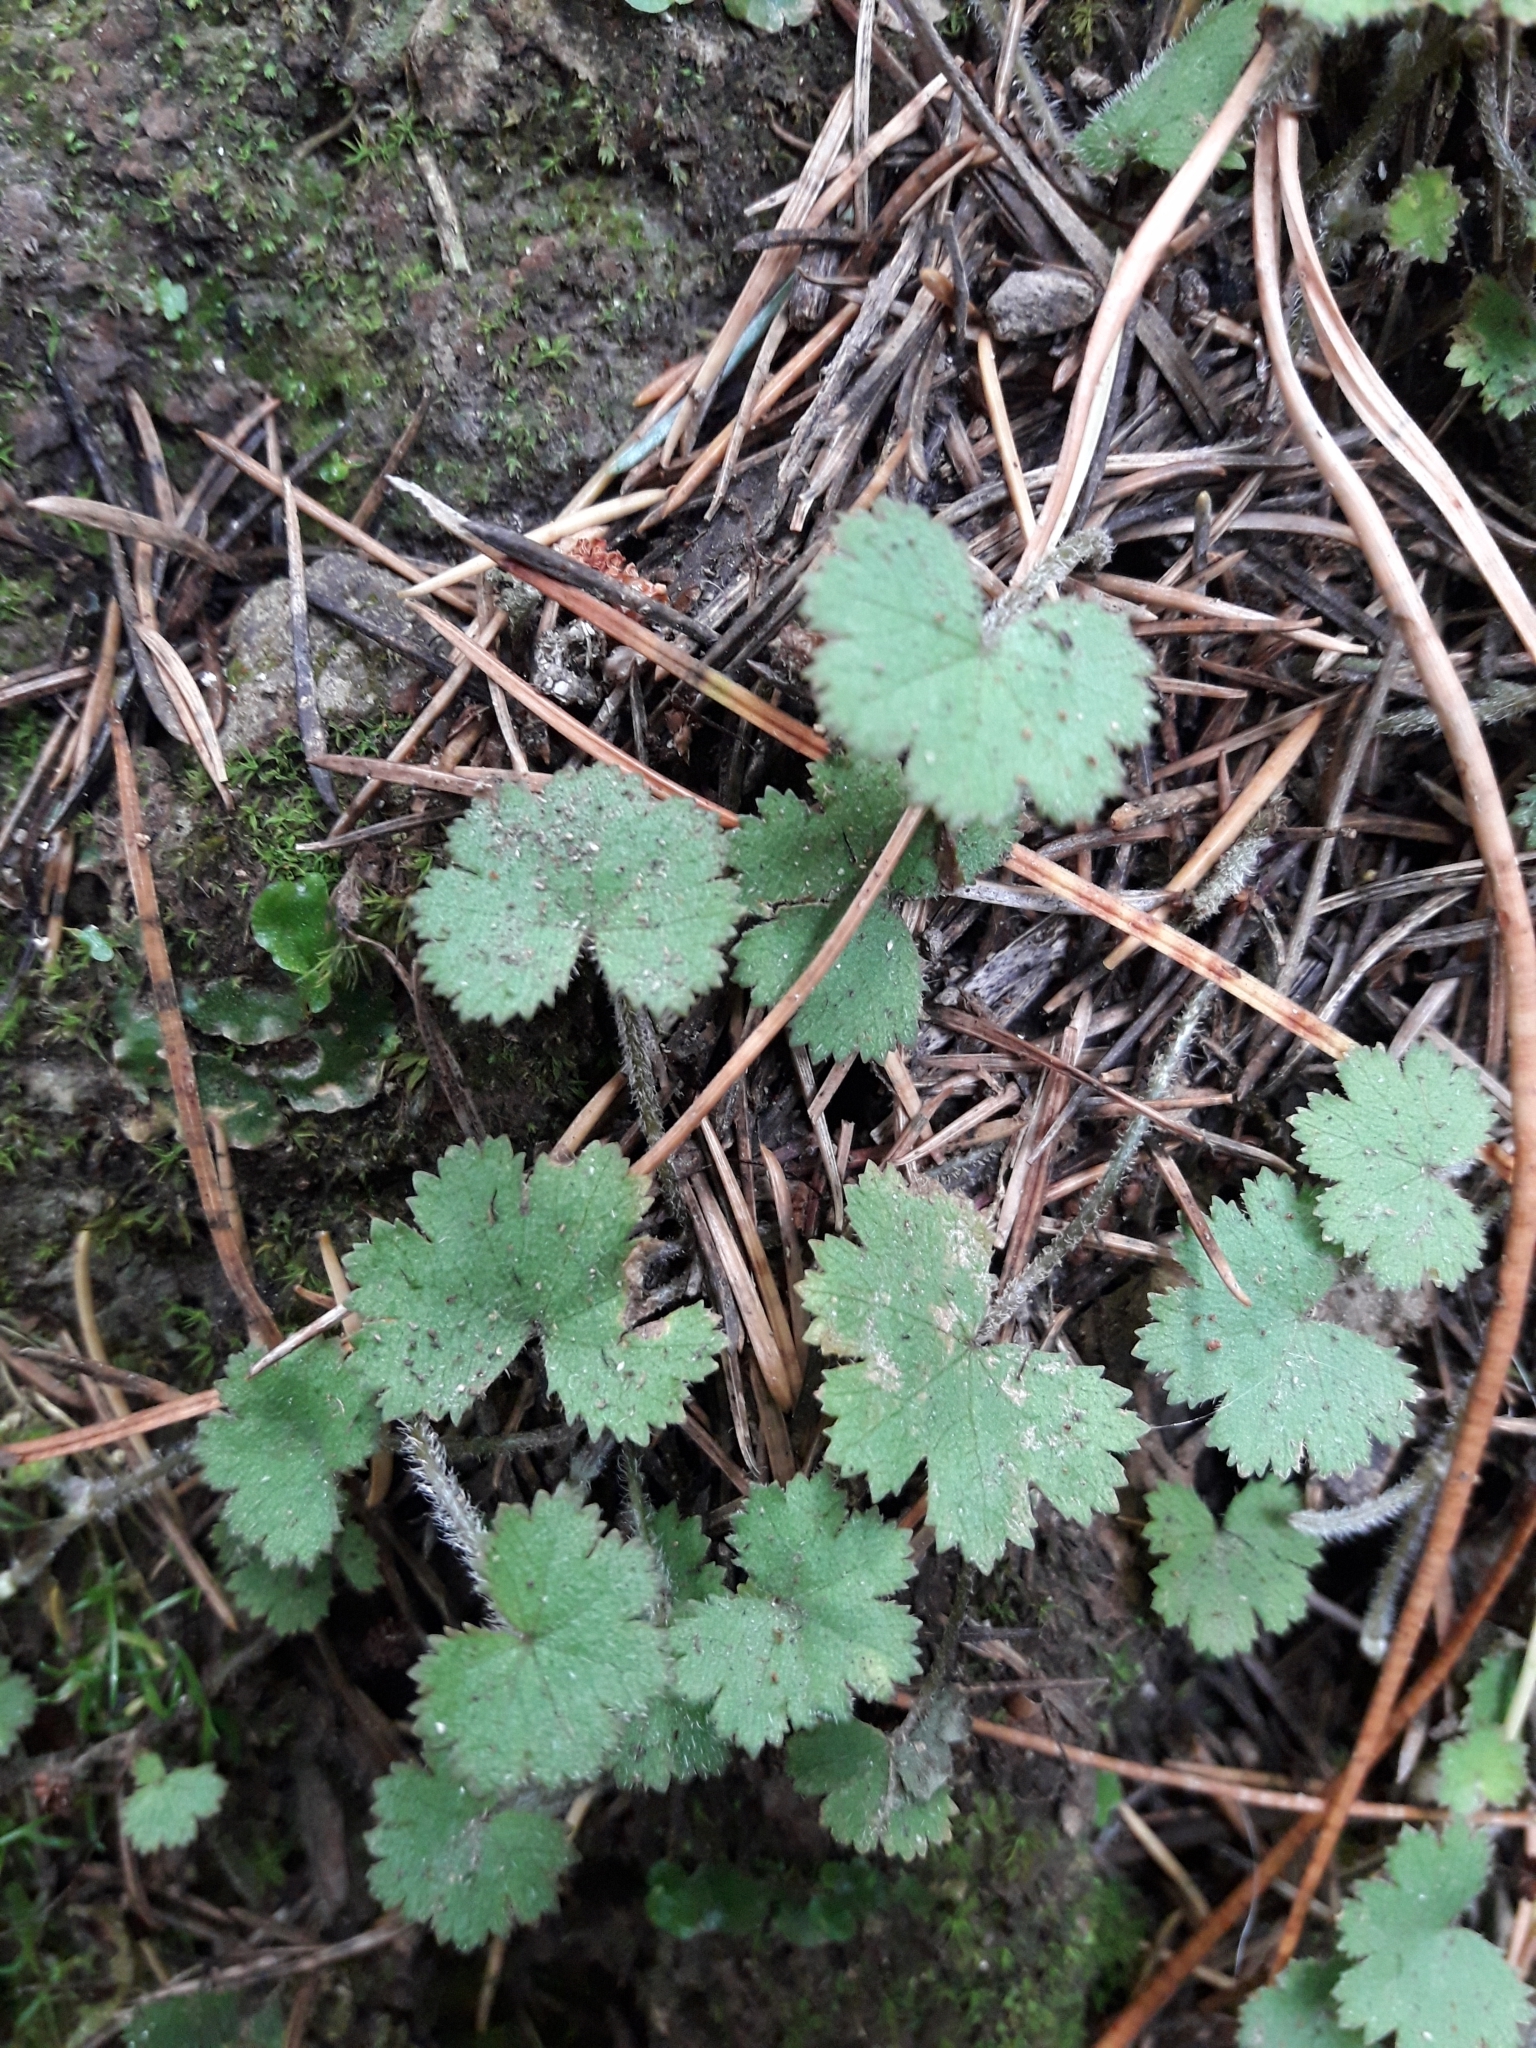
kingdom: Plantae
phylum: Tracheophyta
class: Magnoliopsida
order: Apiales
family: Araliaceae
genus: Hydrocotyle
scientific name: Hydrocotyle moschata
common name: Hairy pennywort
